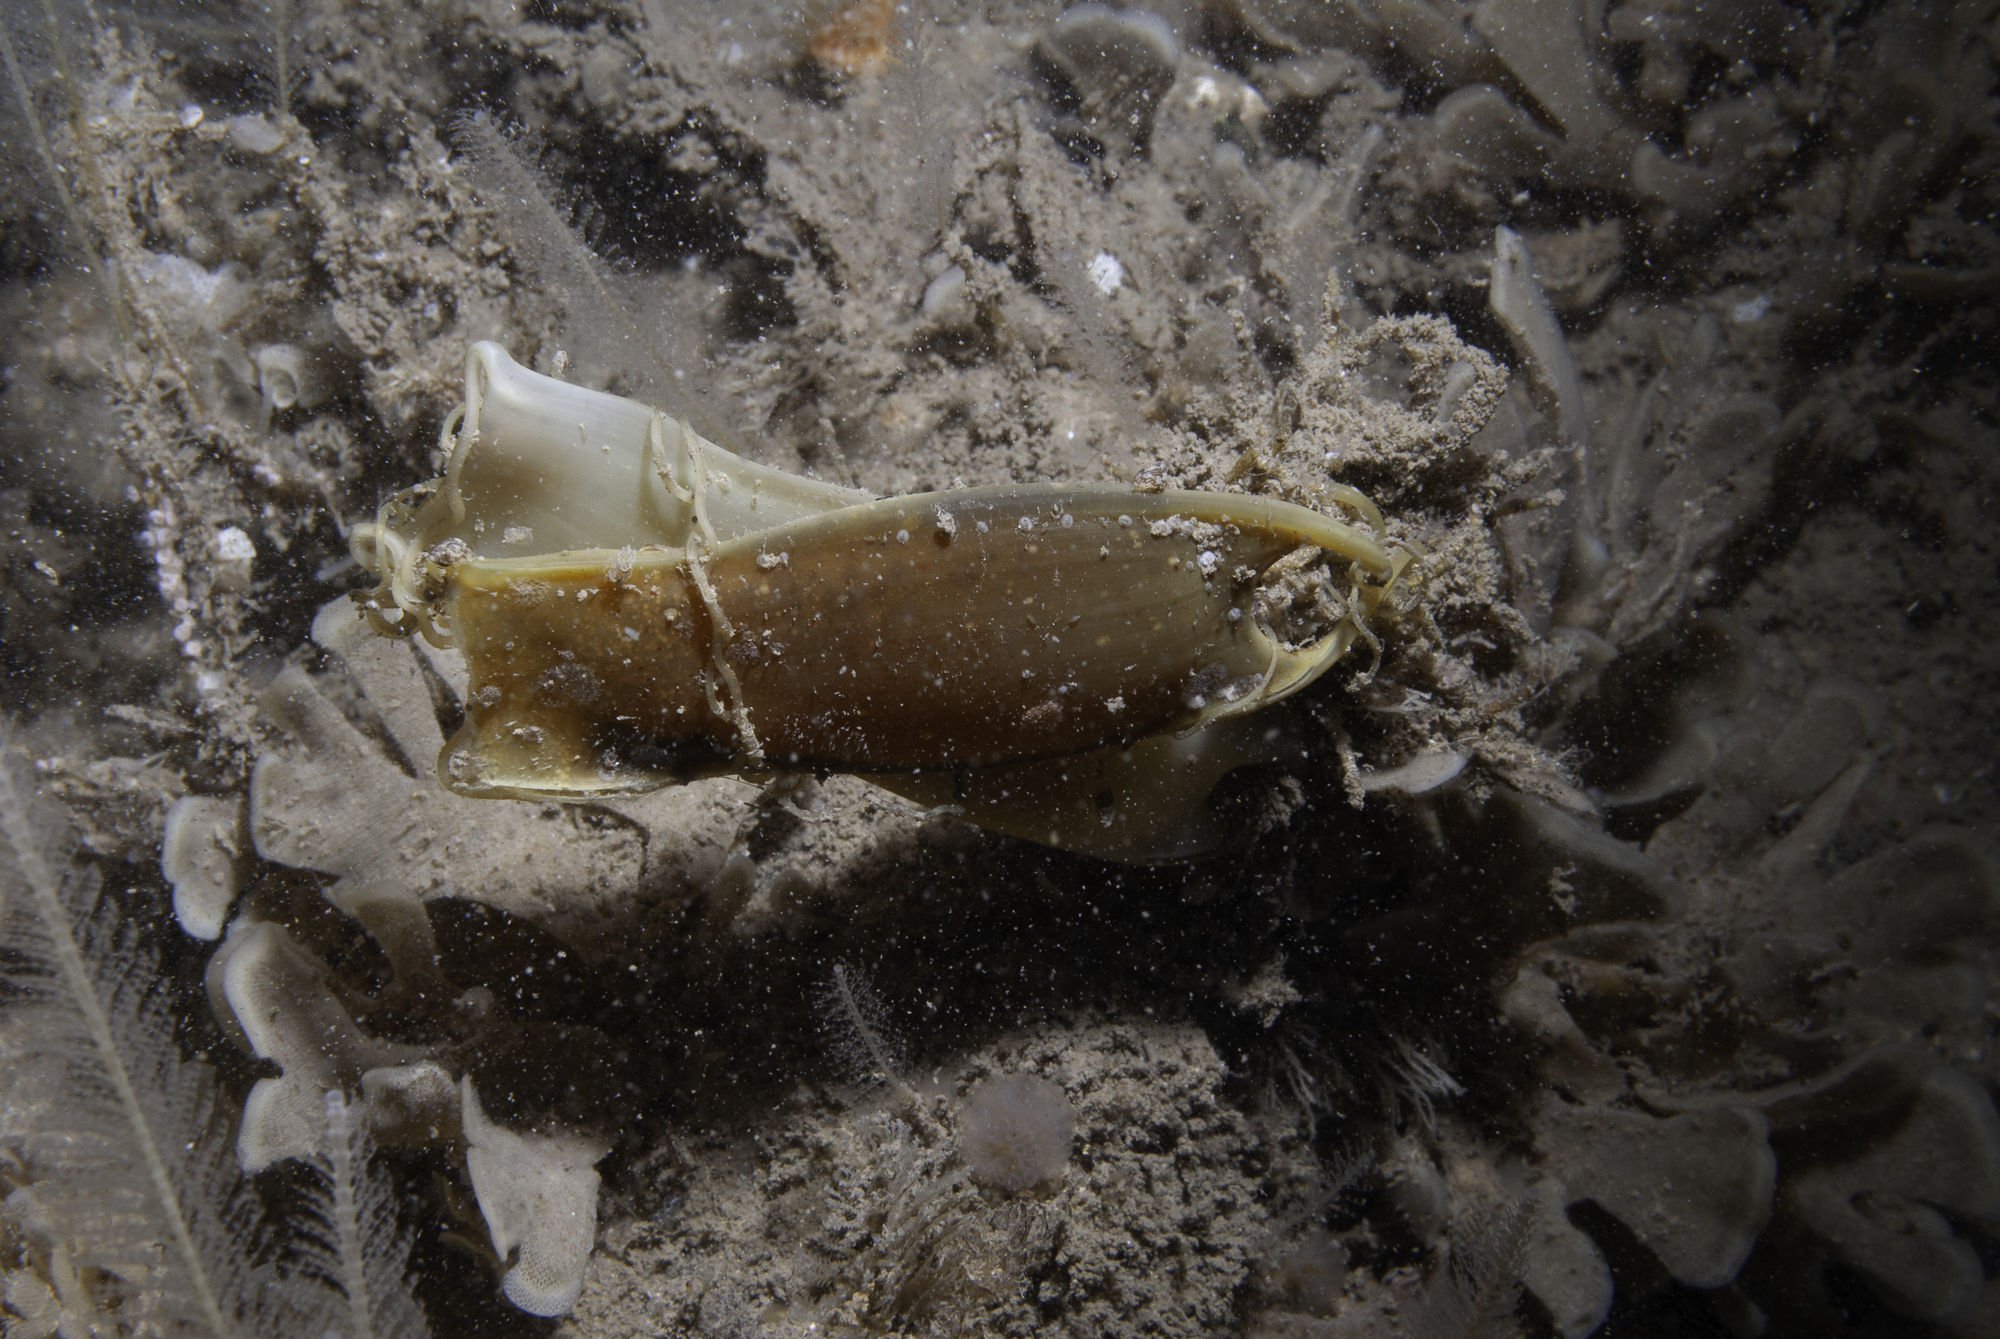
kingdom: Animalia
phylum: Chordata
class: Elasmobranchii
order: Carcharhiniformes
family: Scyliorhinidae
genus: Scyliorhinus
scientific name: Scyliorhinus stellaris
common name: Nursehound
